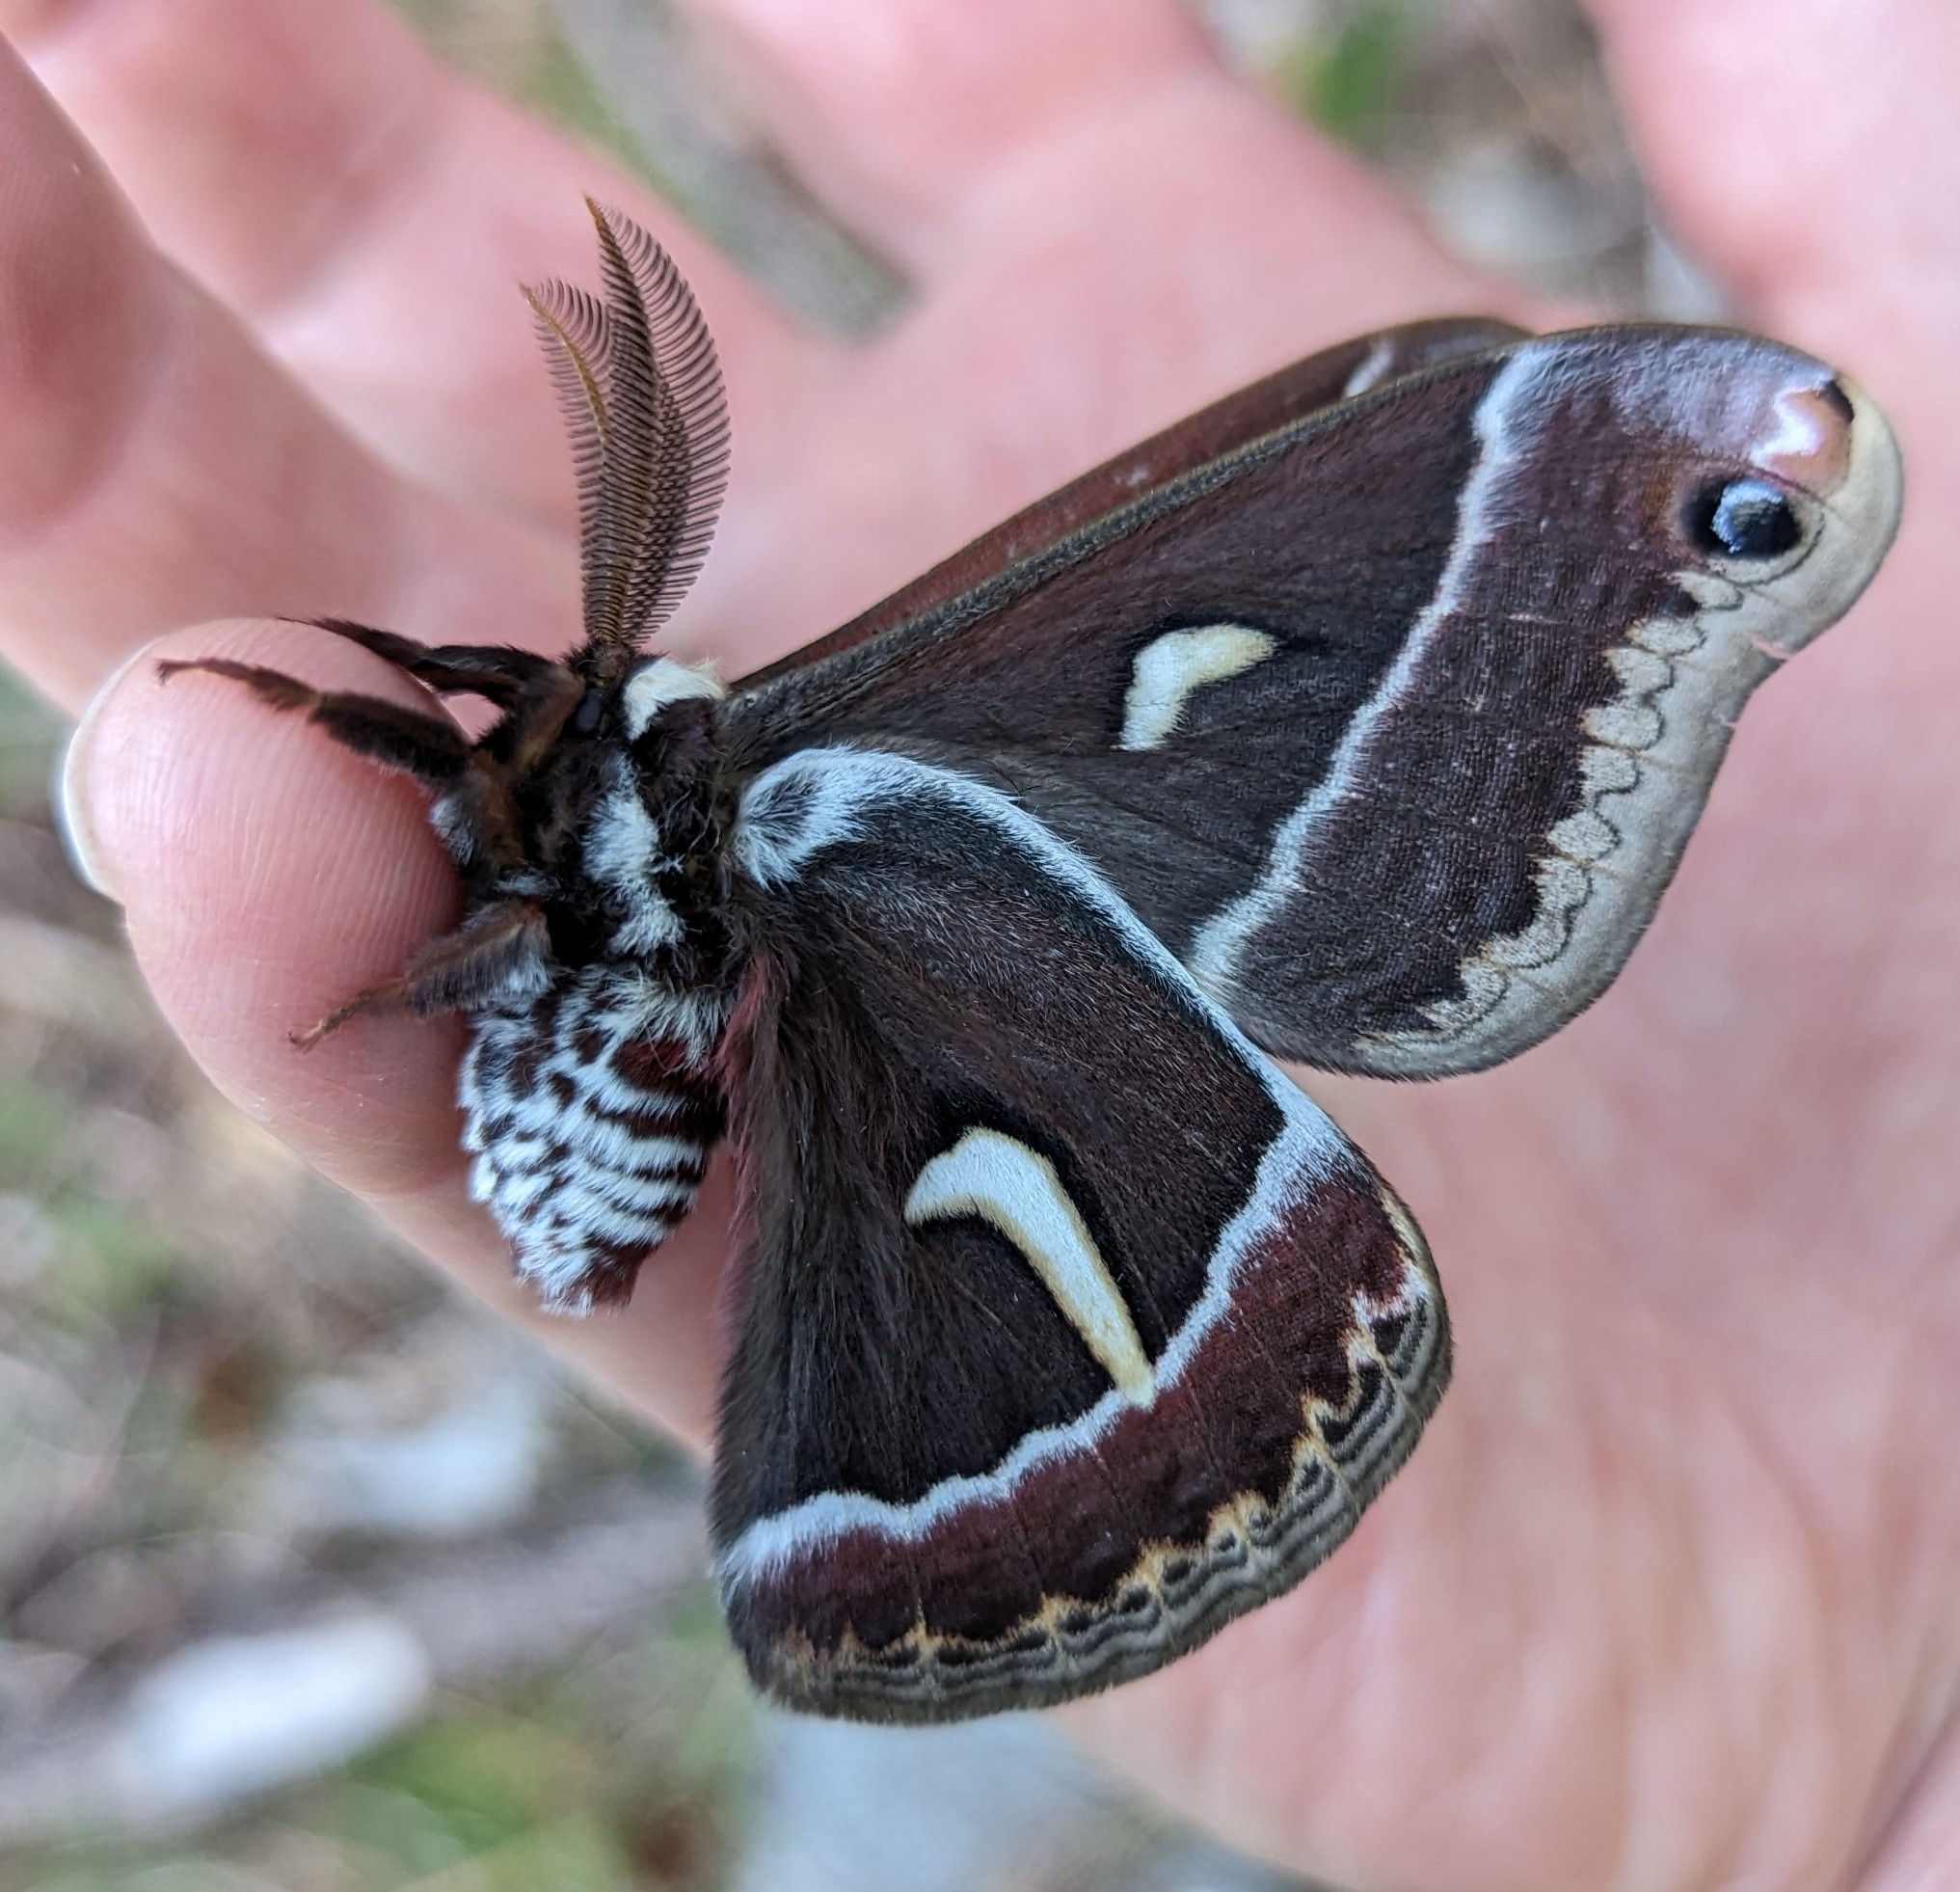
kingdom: Animalia
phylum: Arthropoda
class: Insecta
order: Lepidoptera
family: Saturniidae
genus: Hyalophora
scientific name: Hyalophora euryalus
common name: Ceanothus silkmoth
